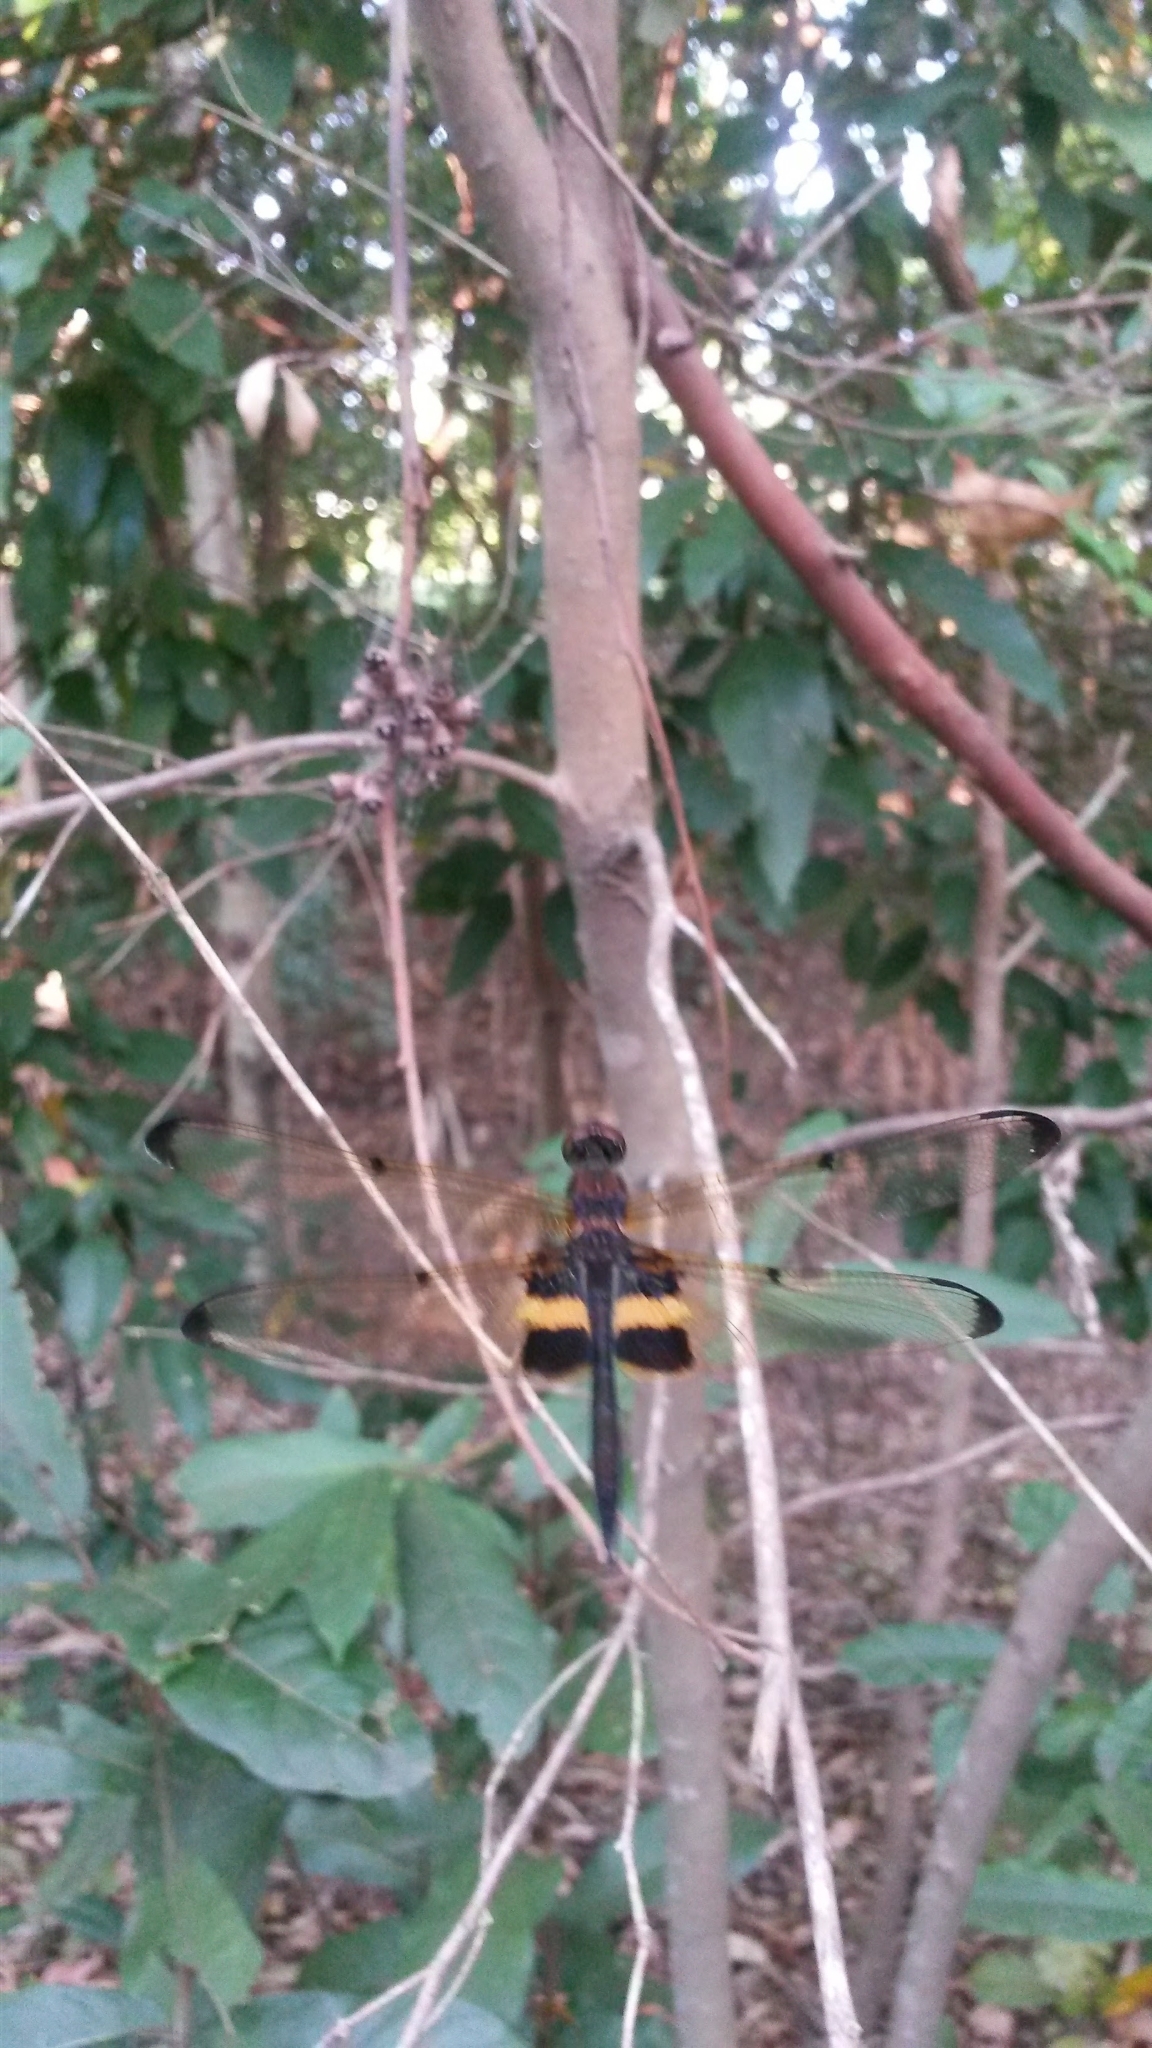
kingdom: Animalia
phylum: Arthropoda
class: Insecta
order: Odonata
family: Libellulidae
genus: Rhyothemis
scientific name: Rhyothemis phyllis
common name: Yellow-barred flutterer
